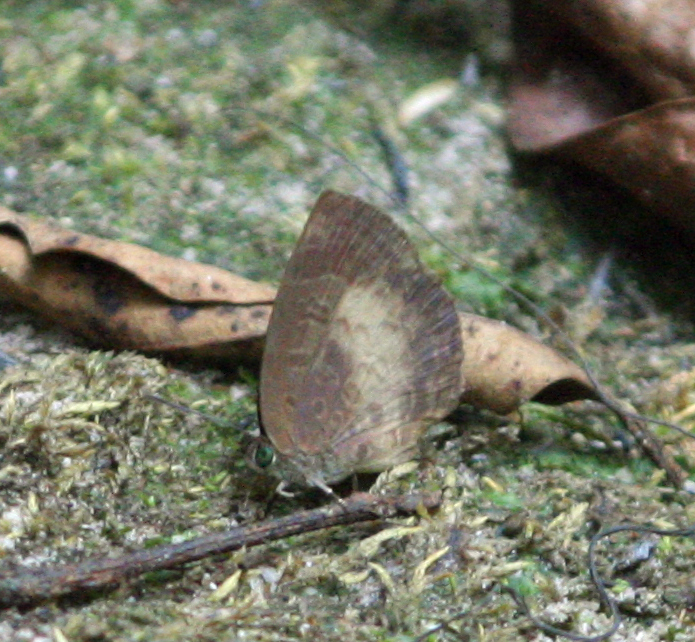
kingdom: Animalia
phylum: Arthropoda
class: Insecta
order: Lepidoptera
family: Lycaenidae
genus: Arhopala
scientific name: Arhopala perimuta
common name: Yellowdisc oakblue
